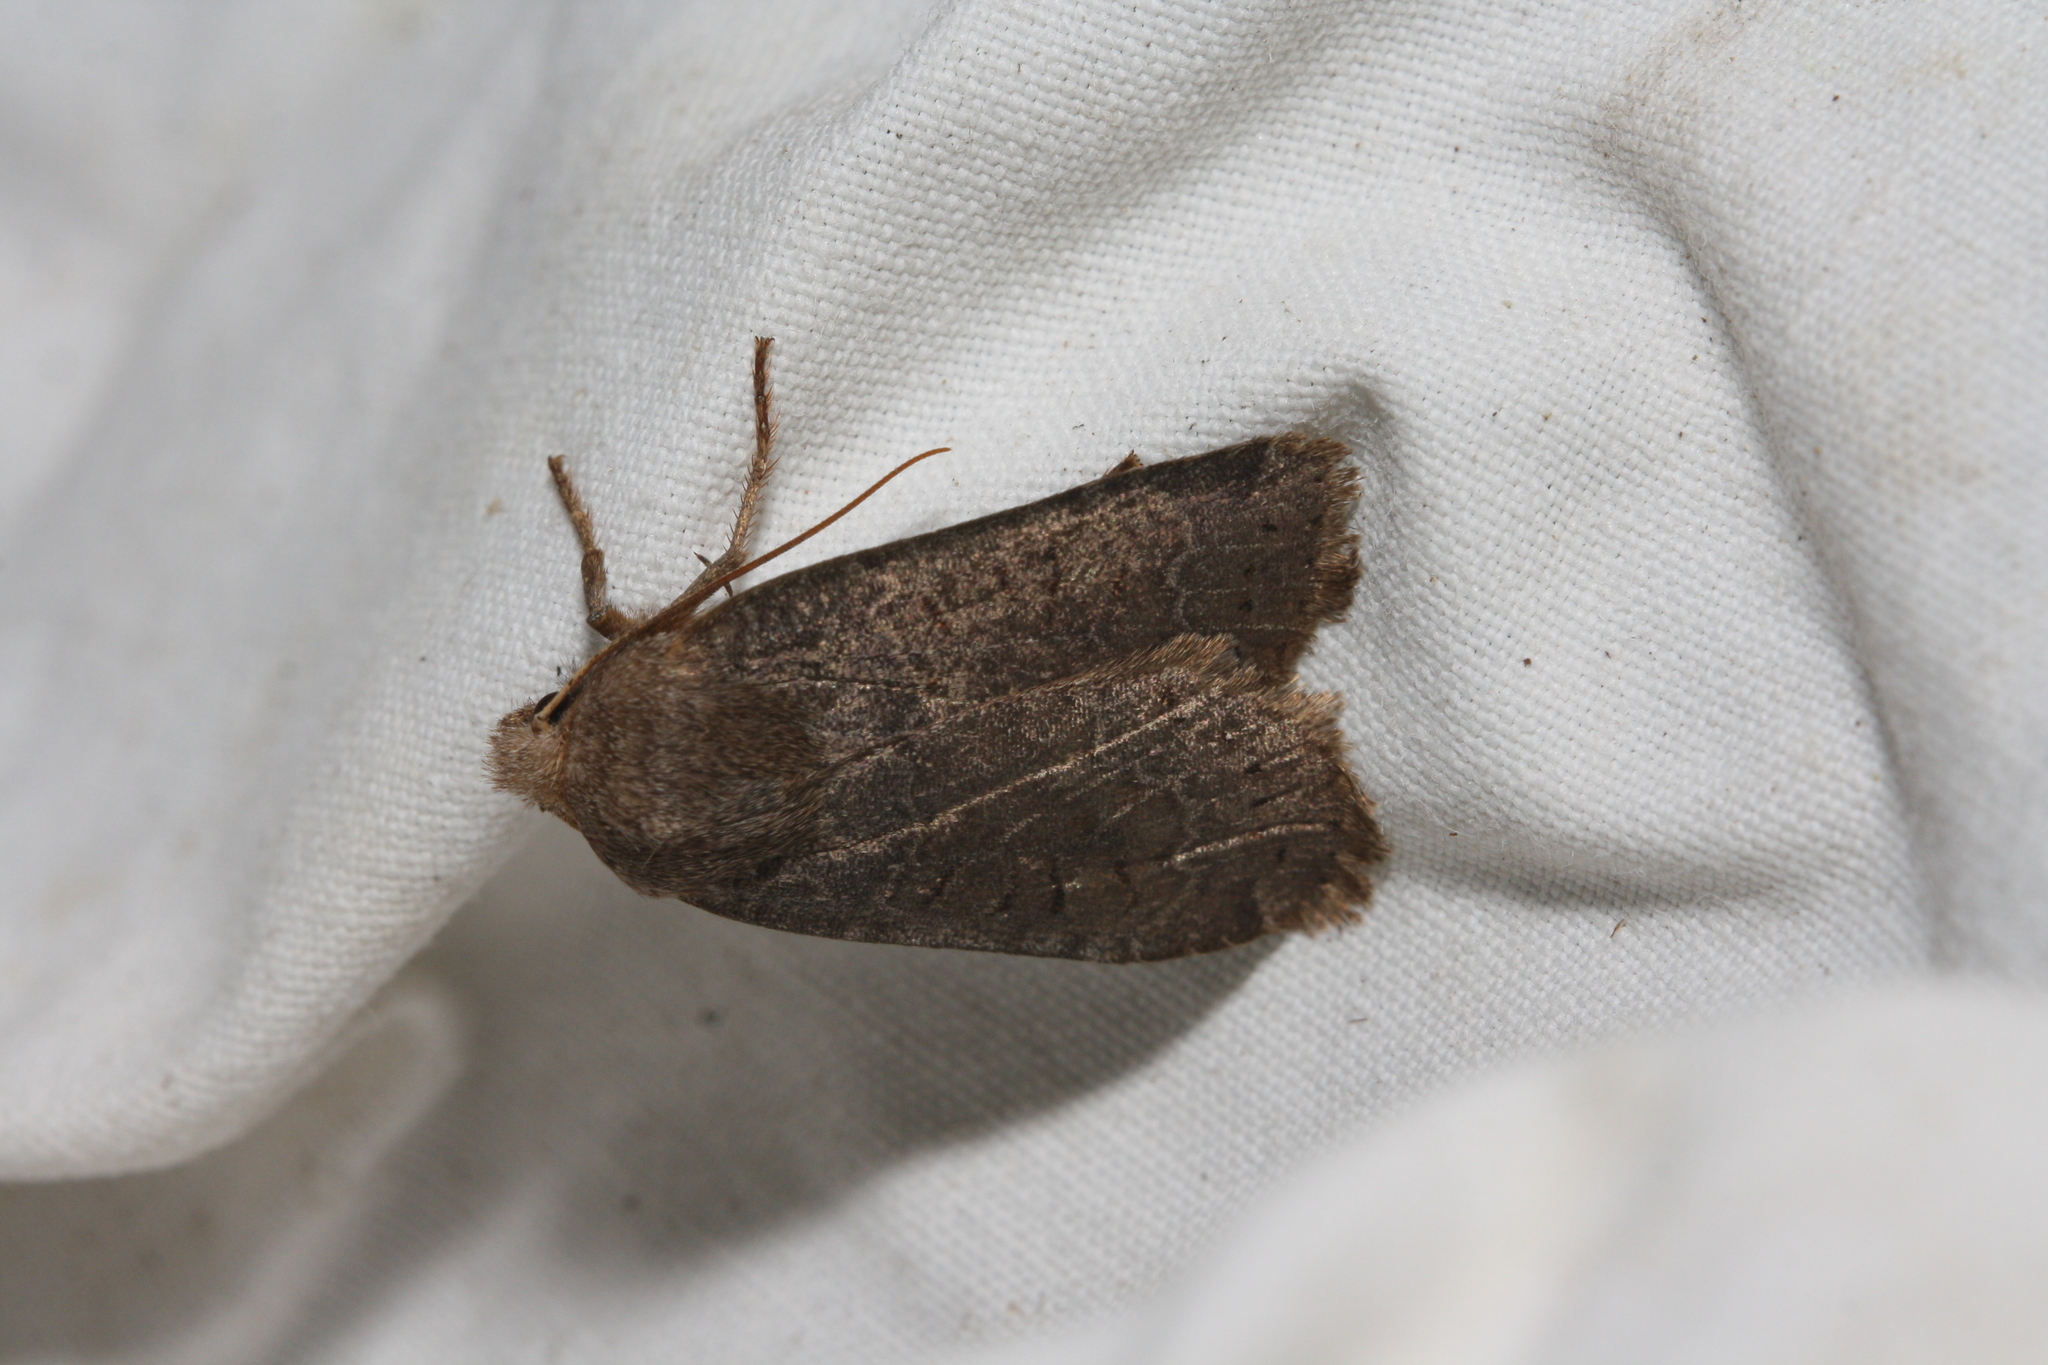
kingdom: Animalia
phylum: Arthropoda
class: Insecta
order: Lepidoptera
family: Noctuidae
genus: Conistra
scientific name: Conistra vaccinii
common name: Chestnut
